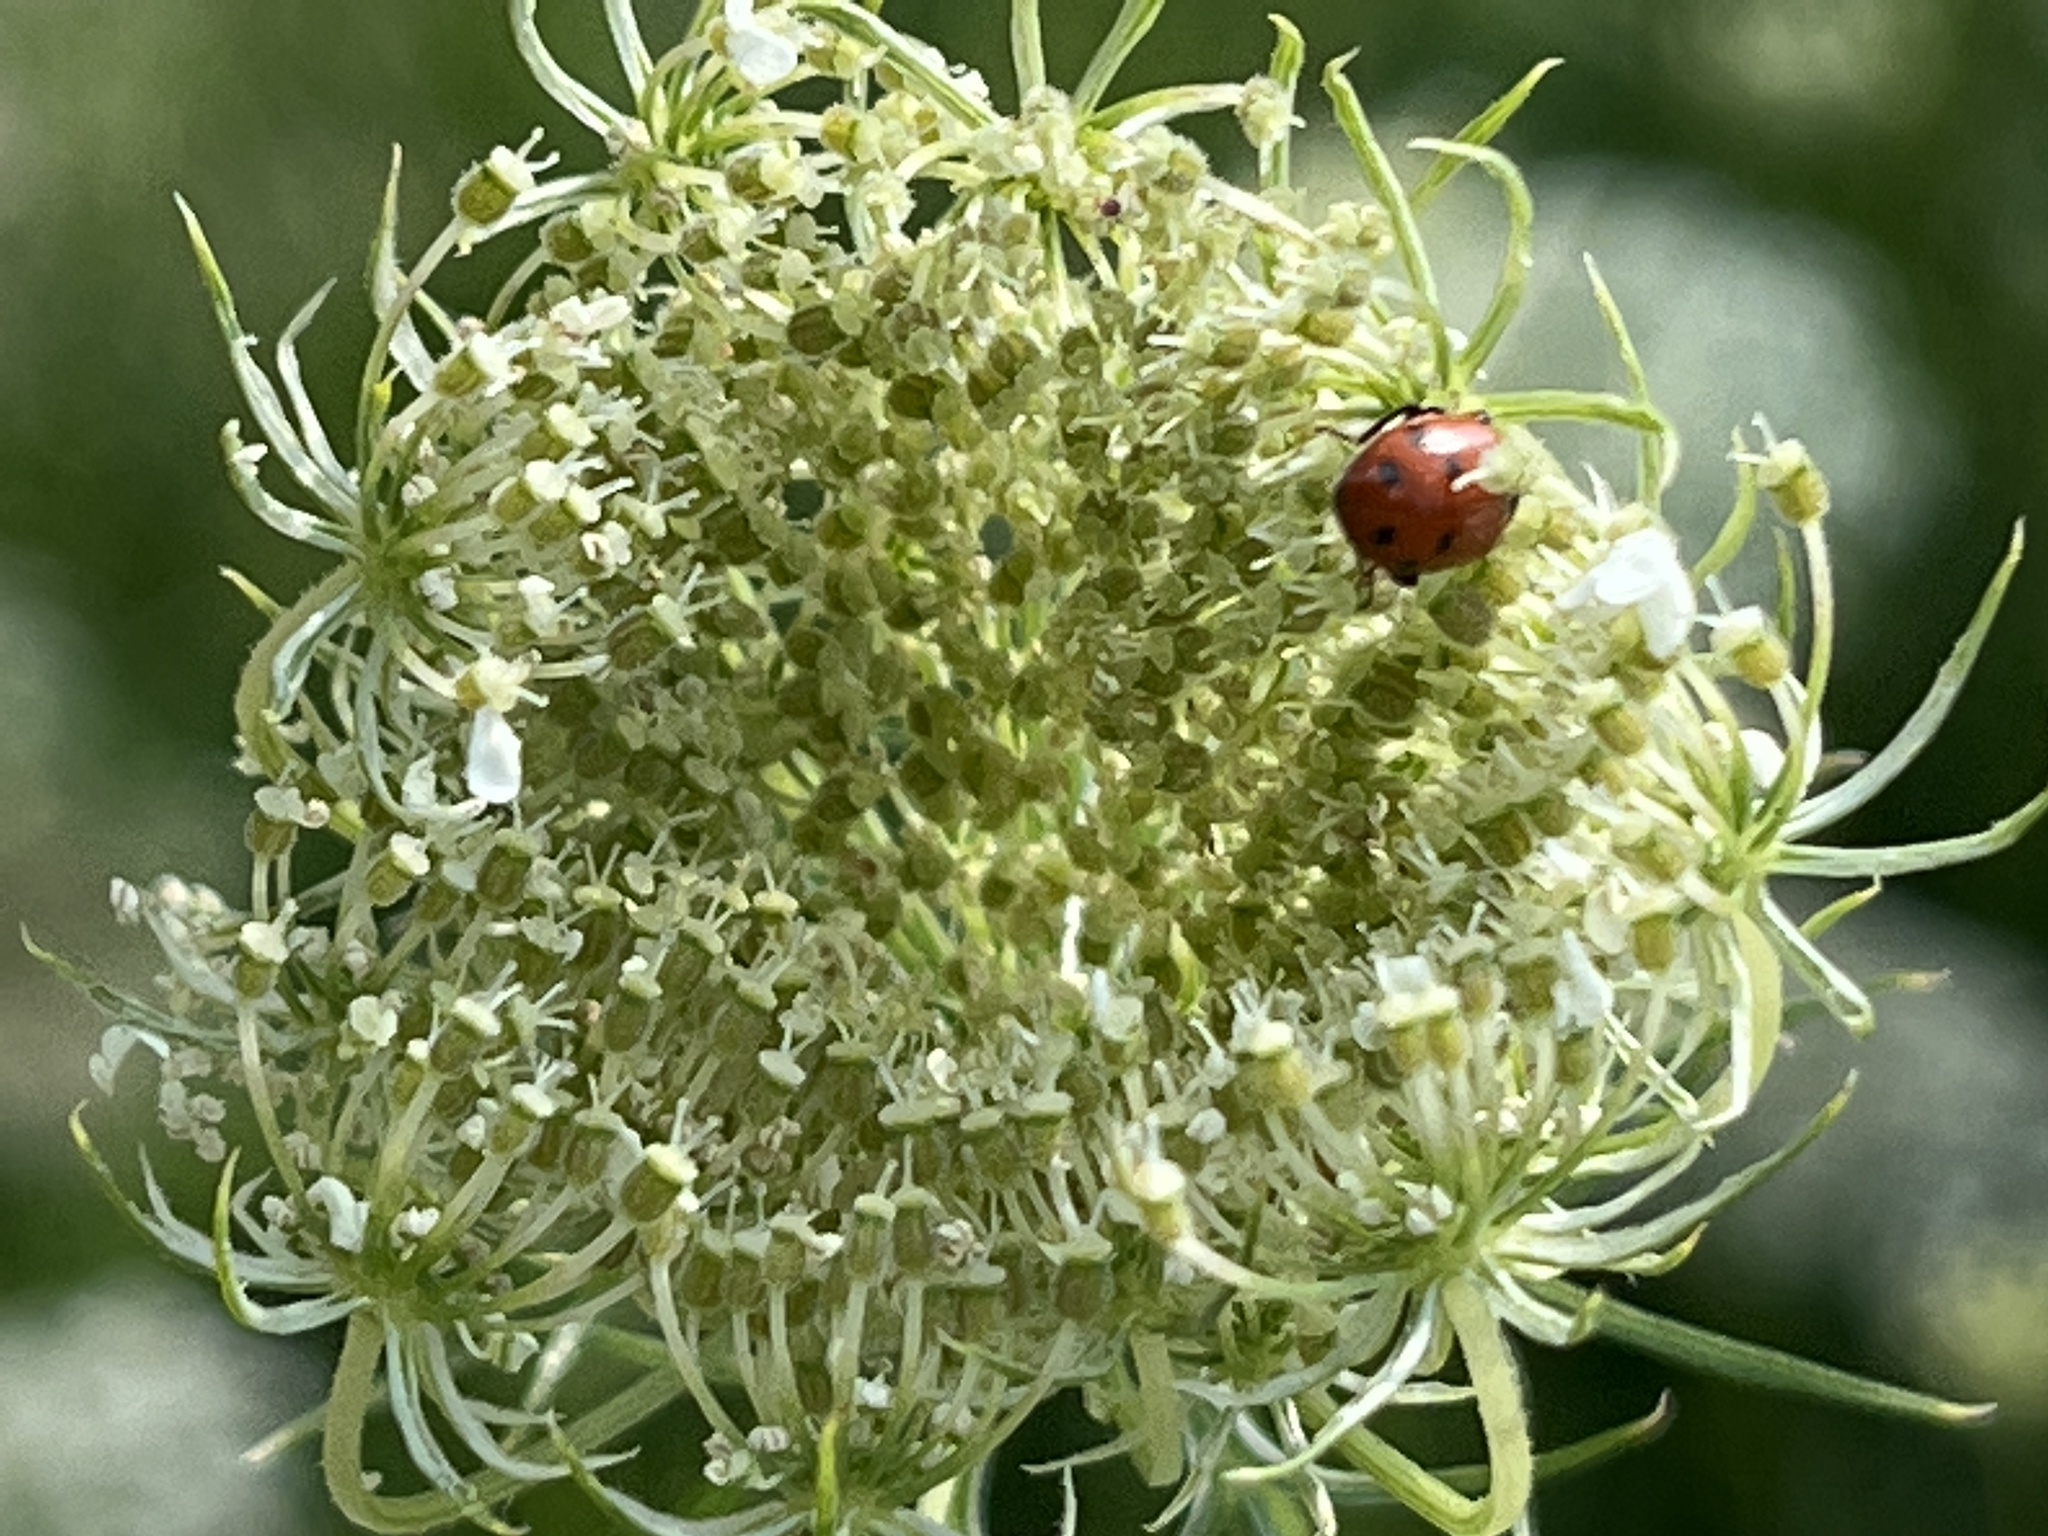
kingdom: Animalia
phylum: Arthropoda
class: Insecta
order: Coleoptera
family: Coccinellidae
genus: Hippodamia
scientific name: Hippodamia
